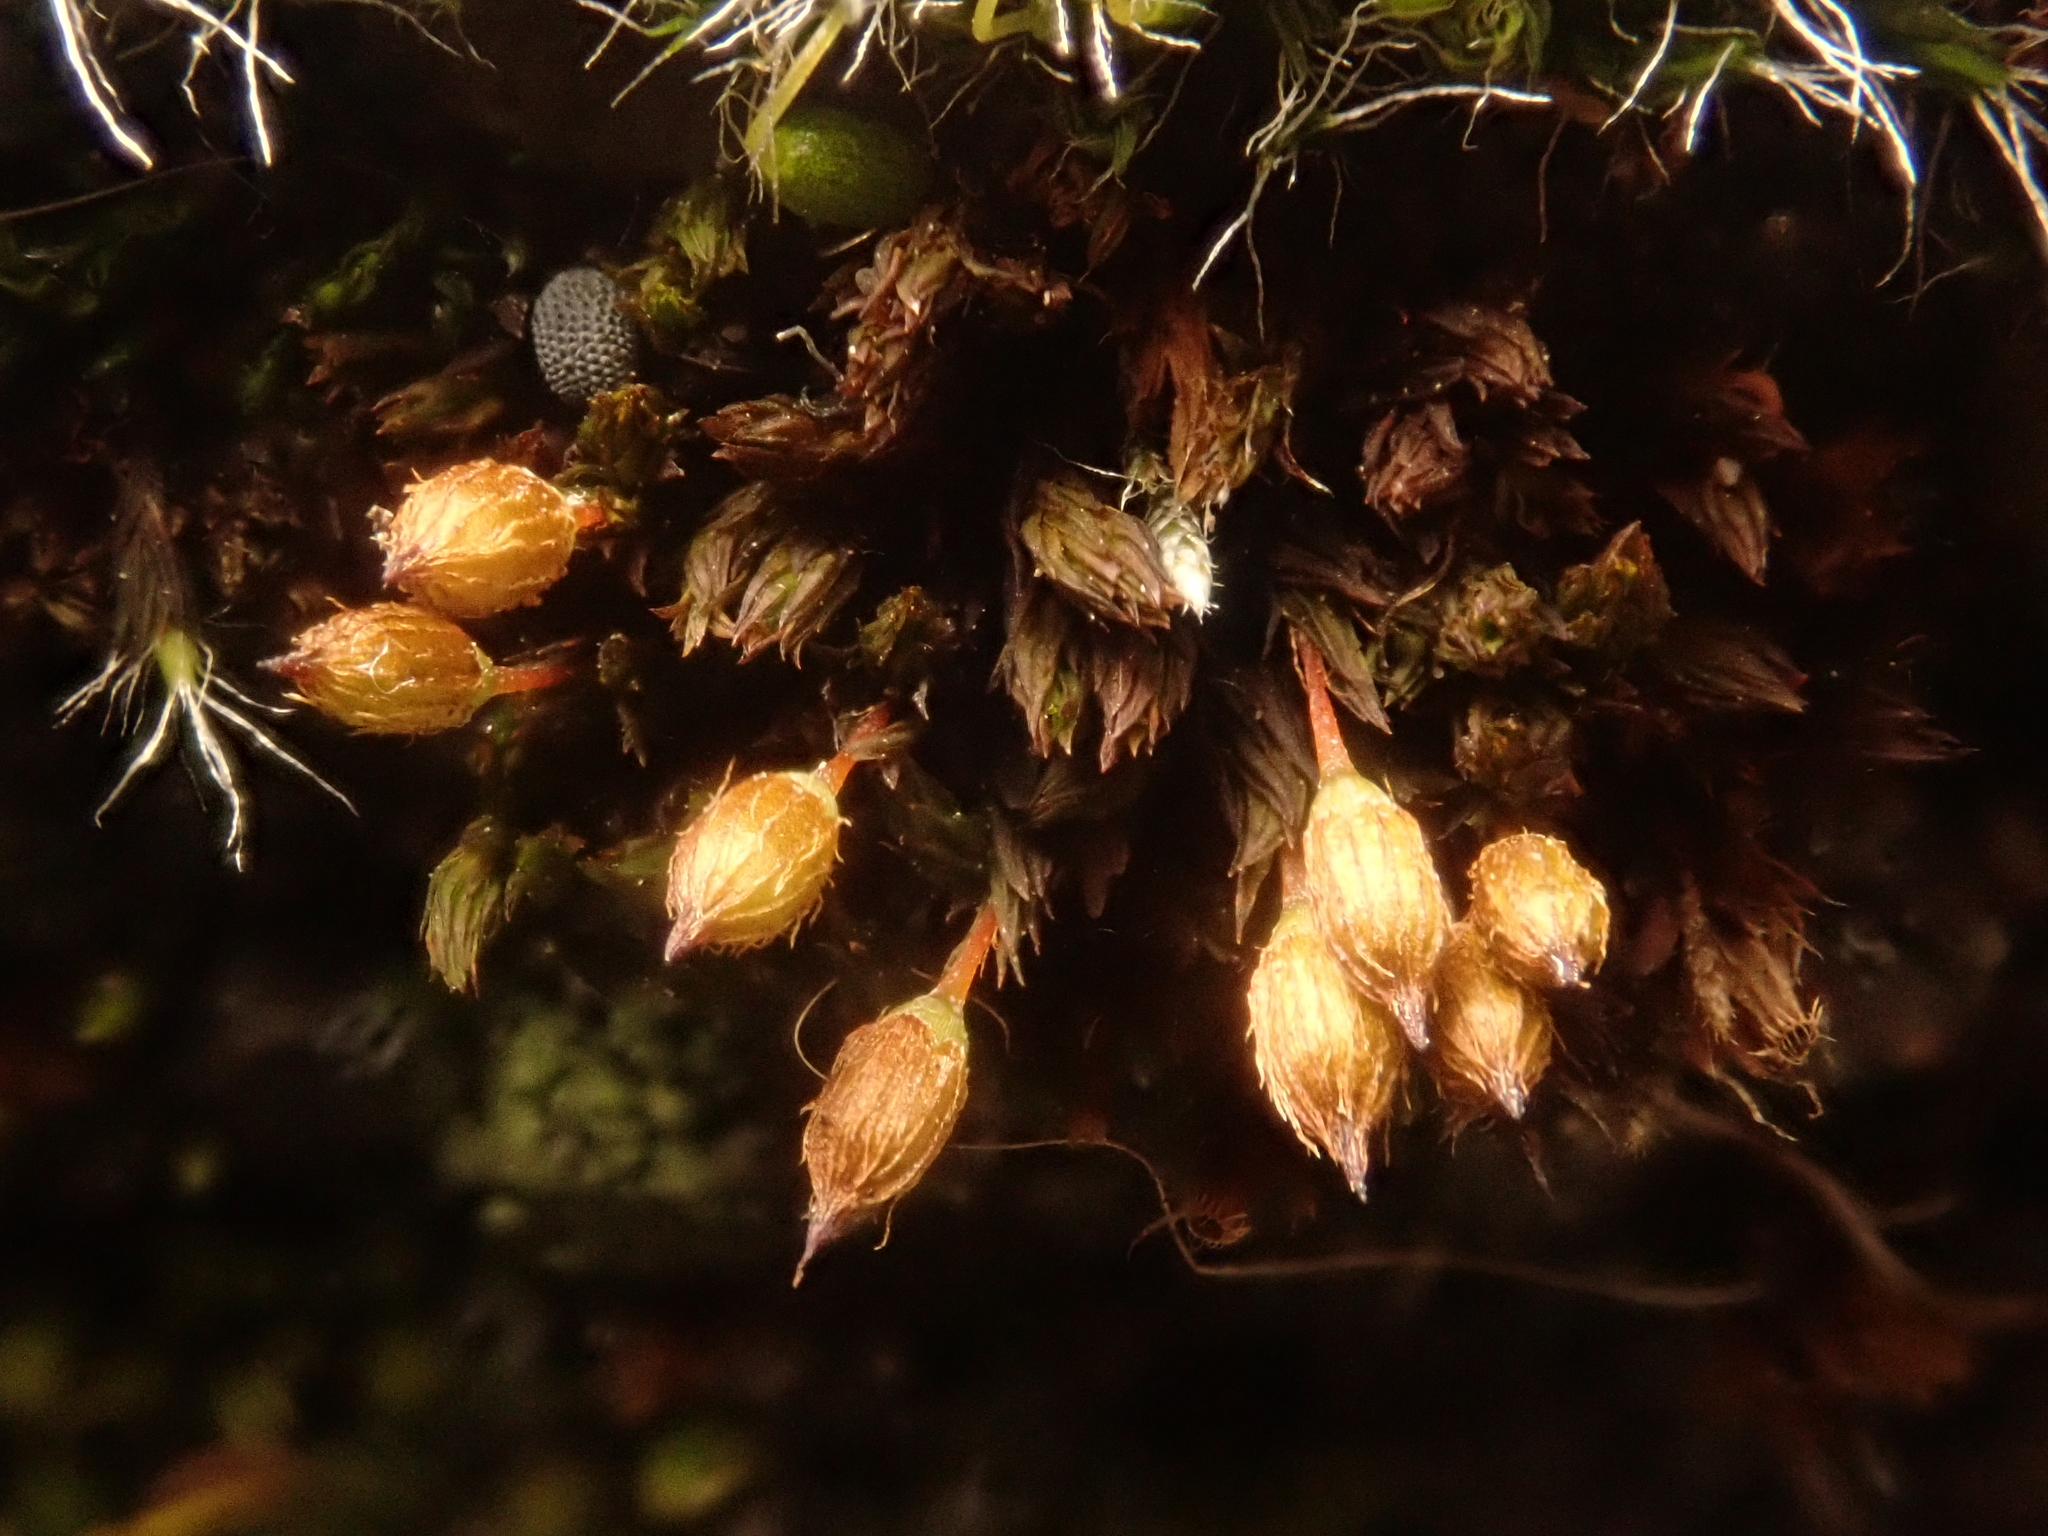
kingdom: Plantae
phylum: Bryophyta
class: Bryopsida
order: Orthotrichales
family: Orthotrichaceae
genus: Orthotrichum
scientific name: Orthotrichum anomalum
